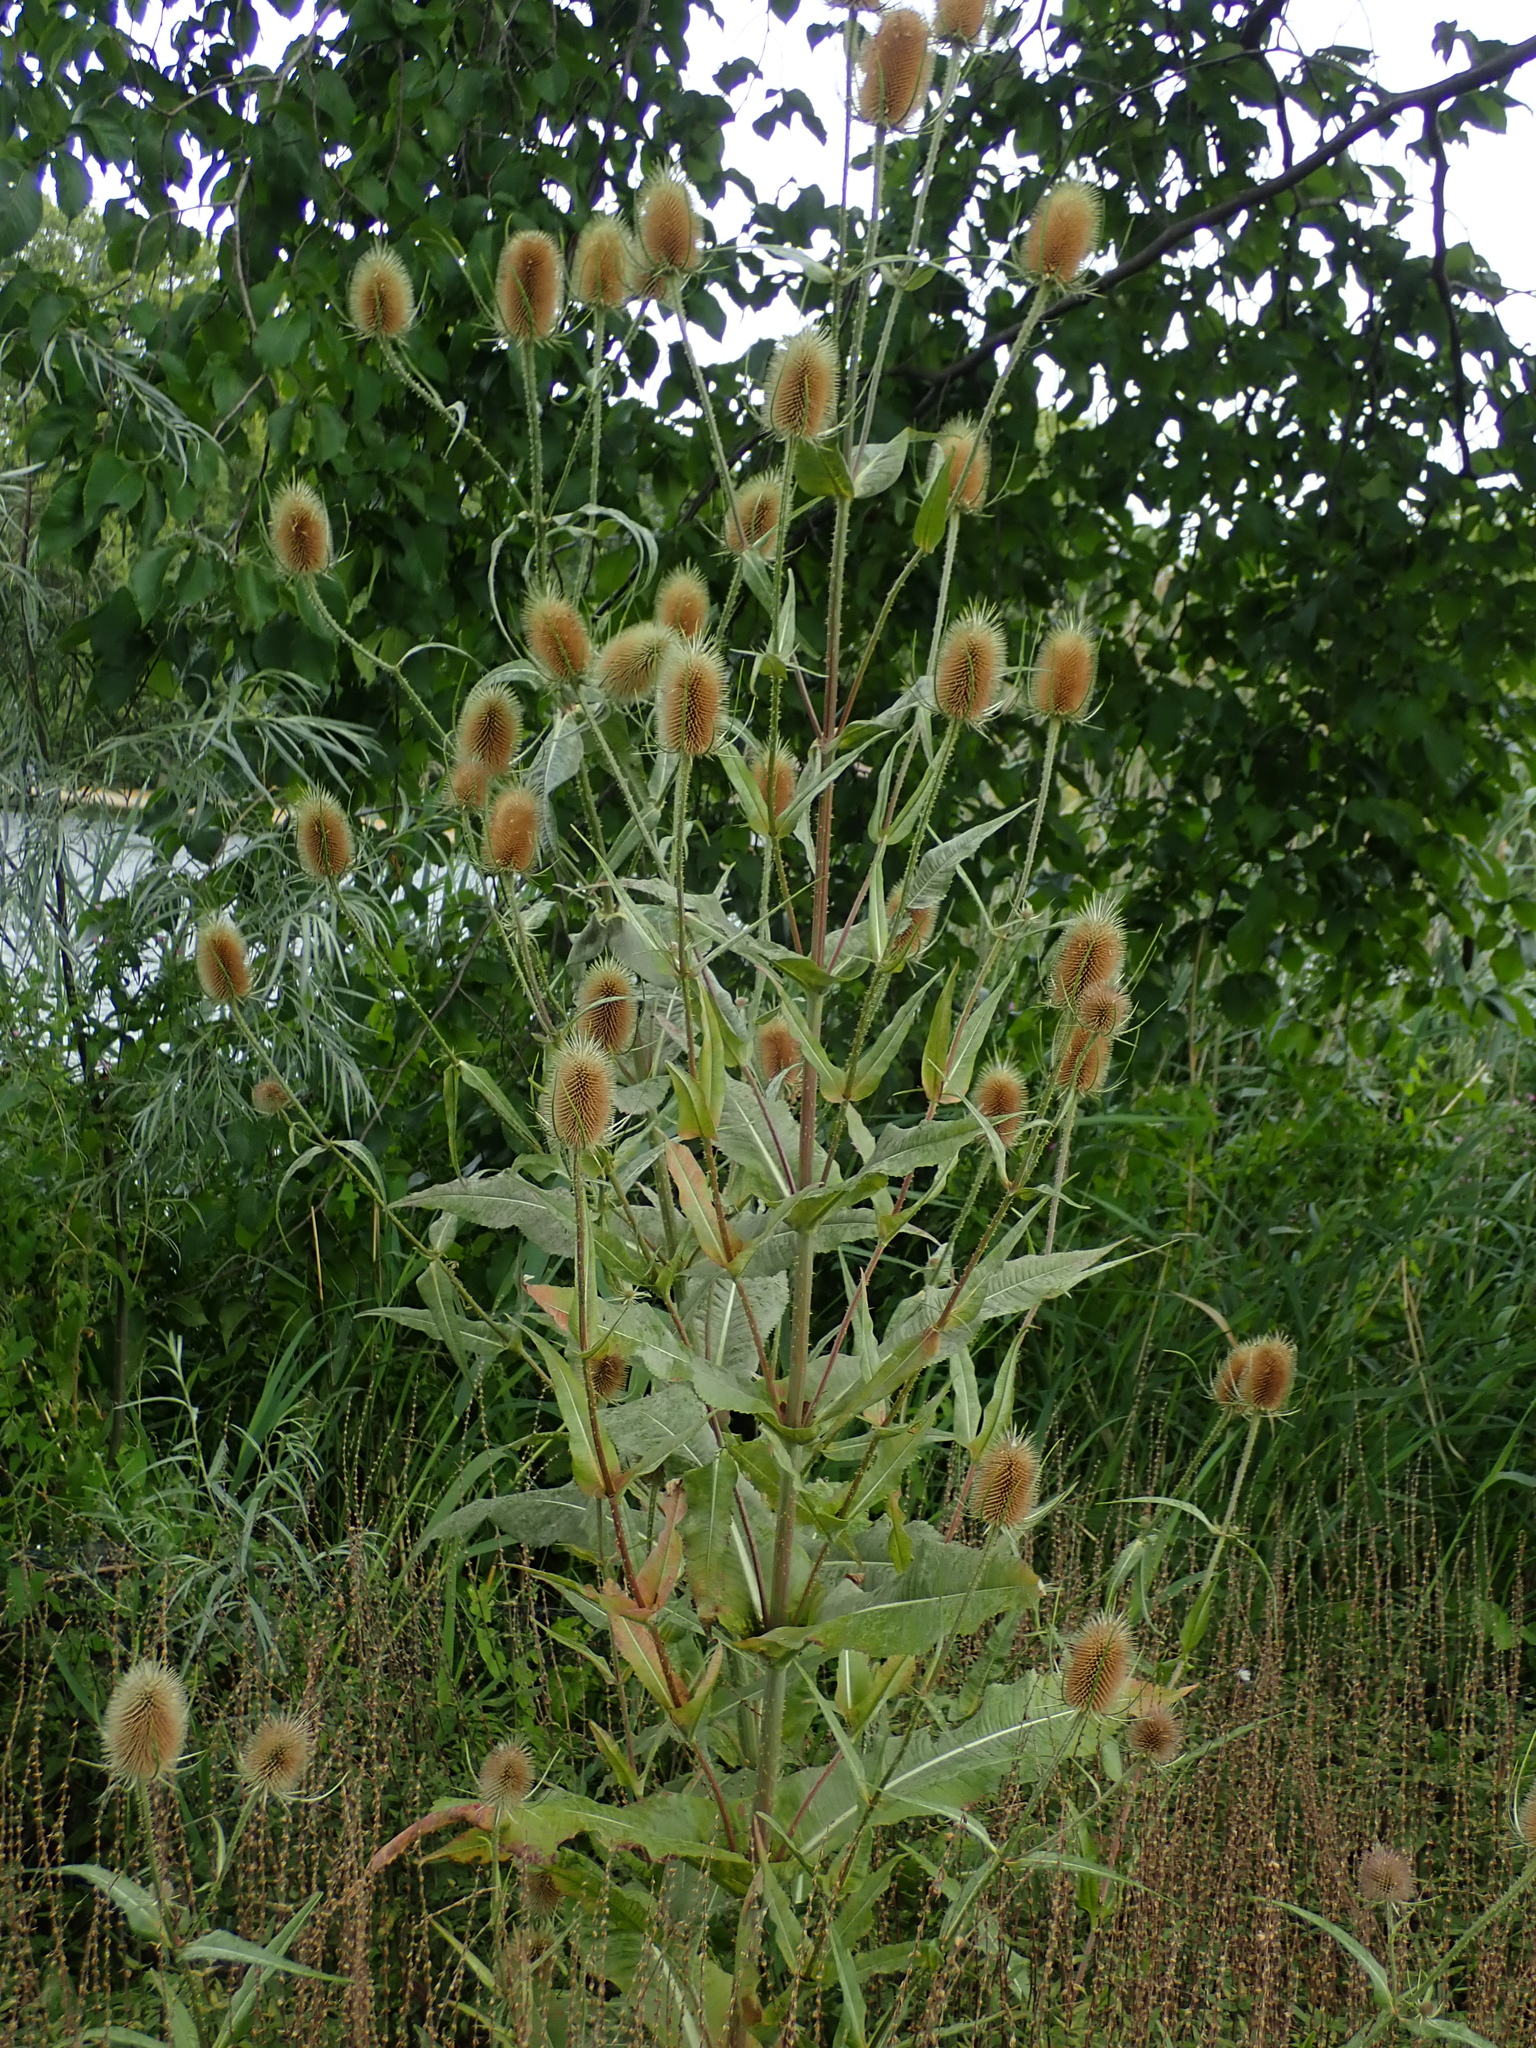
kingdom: Plantae
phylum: Tracheophyta
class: Magnoliopsida
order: Dipsacales
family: Caprifoliaceae
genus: Dipsacus
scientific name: Dipsacus fullonum
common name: Teasel
